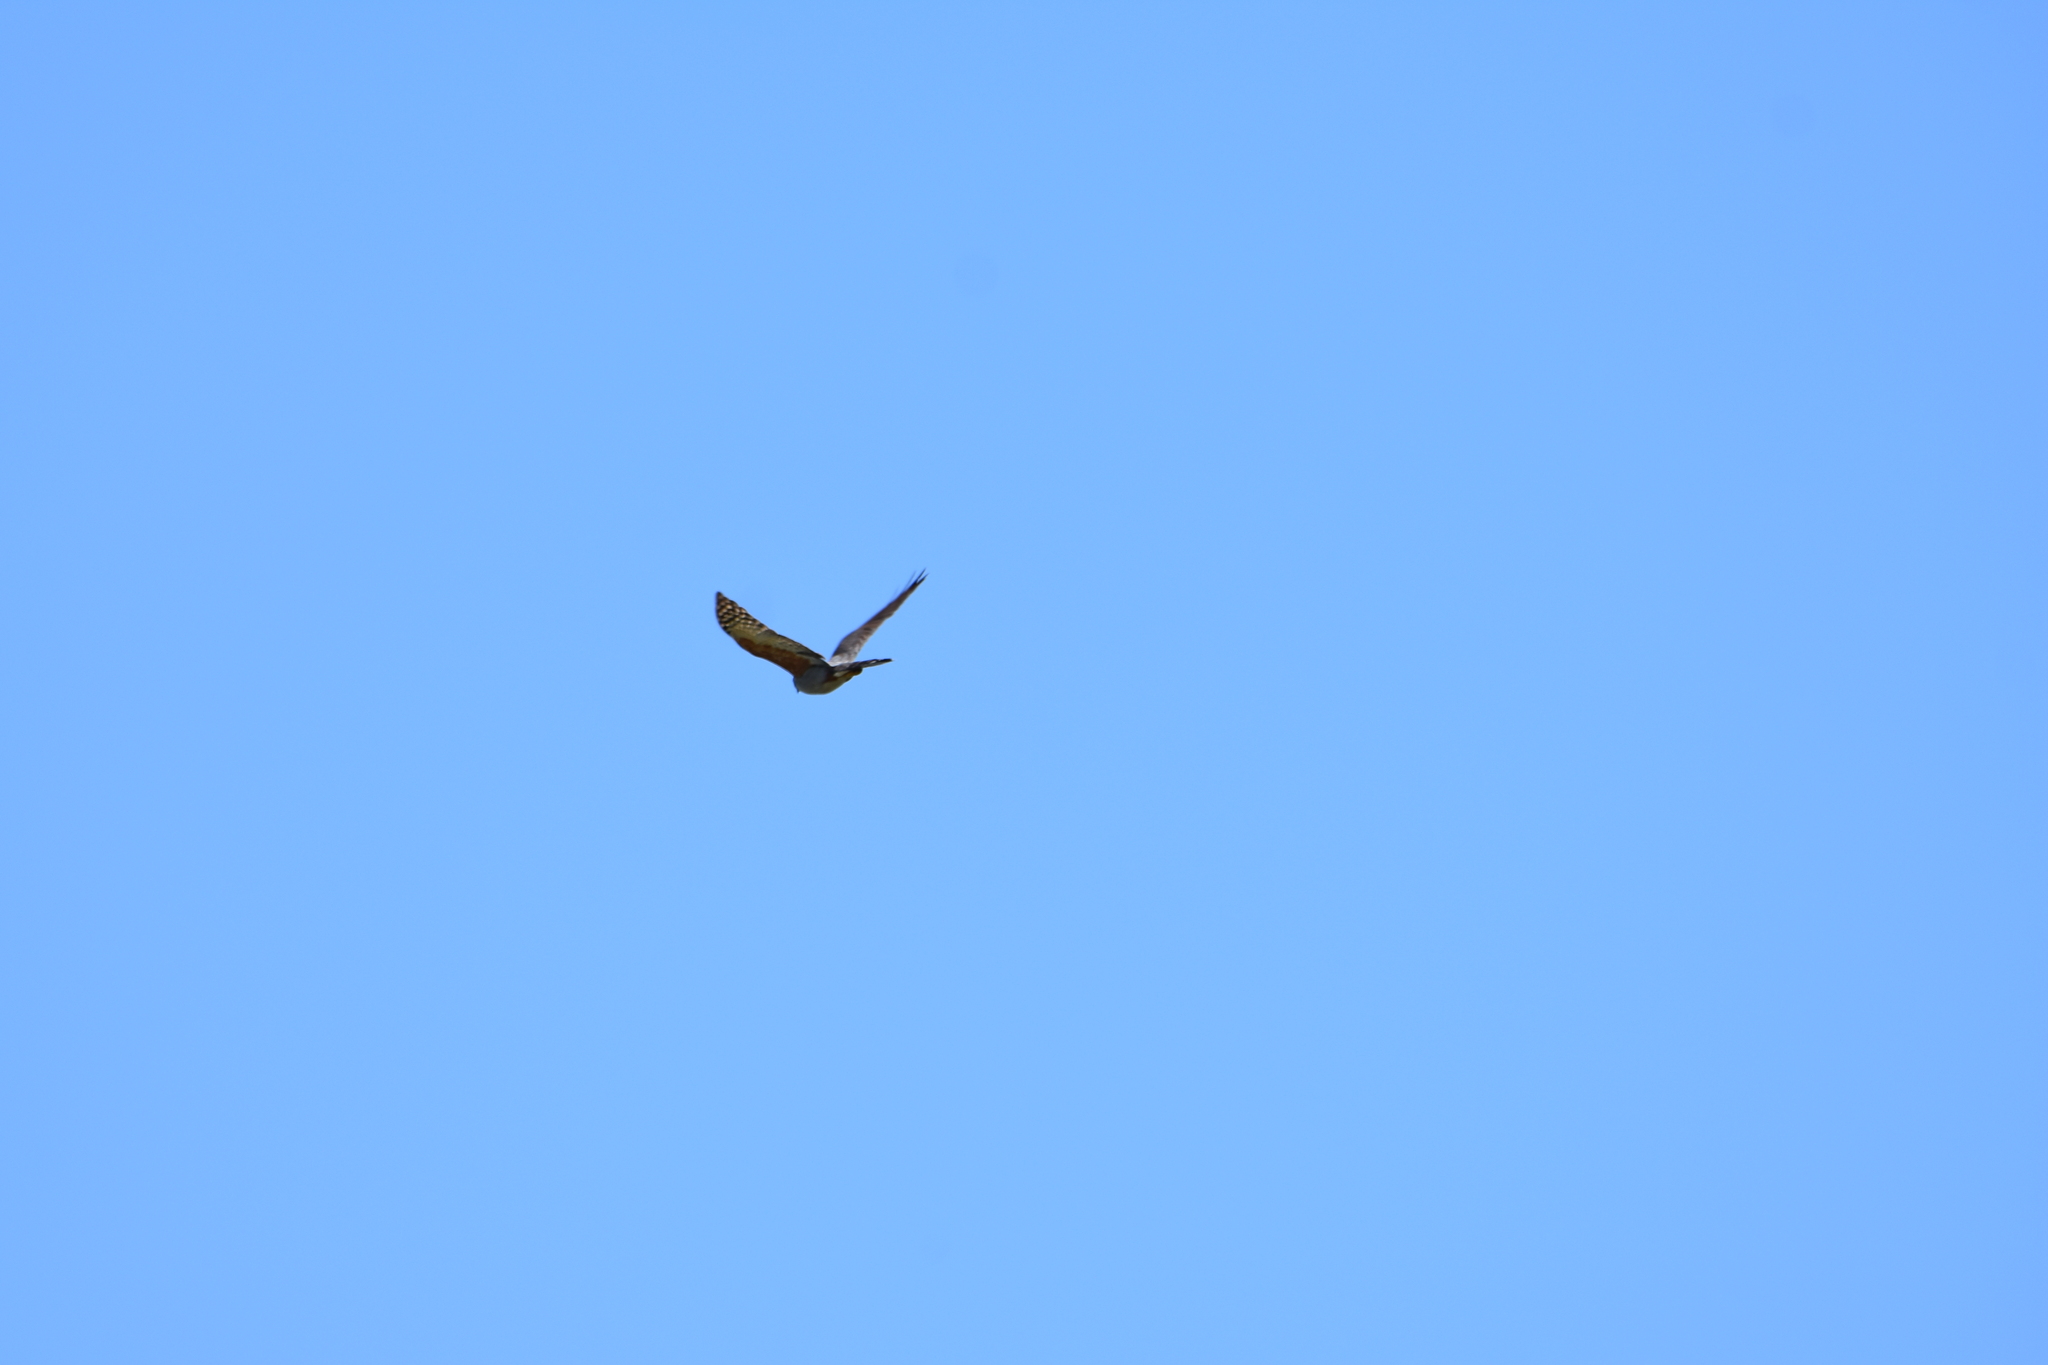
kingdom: Animalia
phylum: Chordata
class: Aves
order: Accipitriformes
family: Accipitridae
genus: Harpagus
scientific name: Harpagus diodon
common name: Rufous-thighed kite
